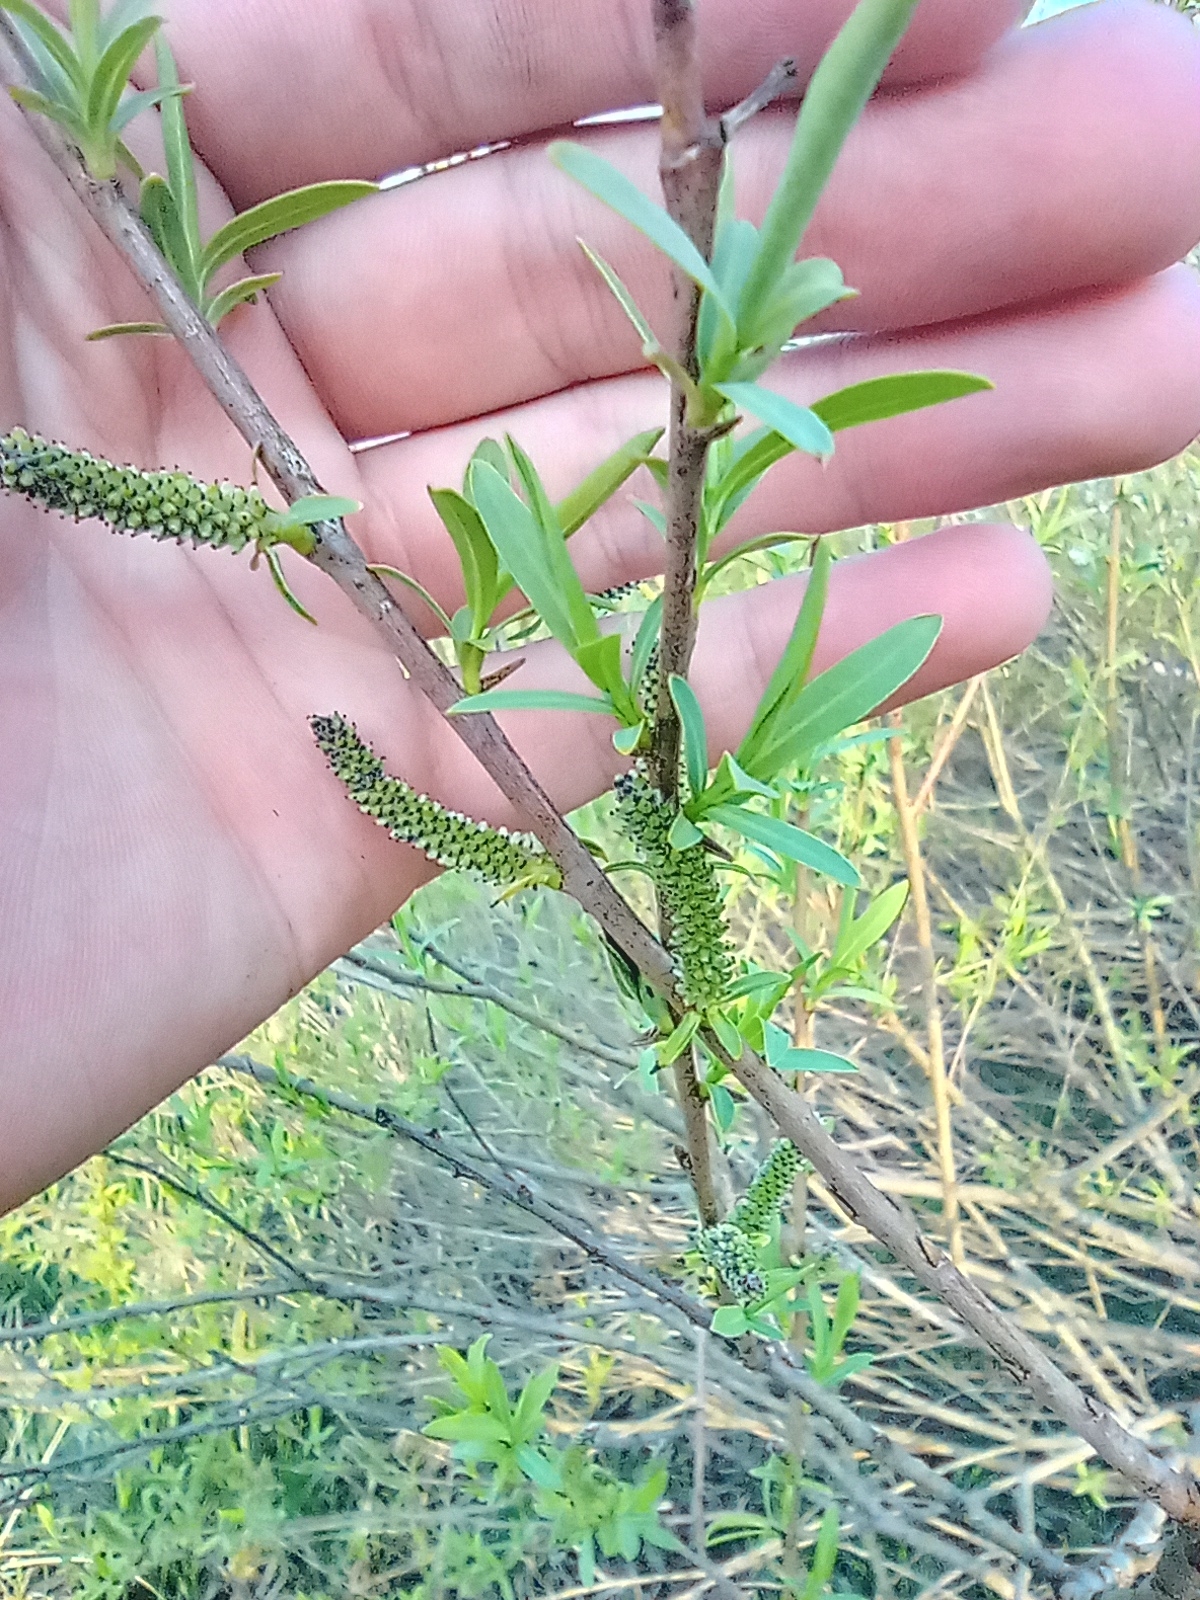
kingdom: Plantae
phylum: Tracheophyta
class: Magnoliopsida
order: Malpighiales
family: Salicaceae
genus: Salix
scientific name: Salix purpurea
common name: Purple willow
